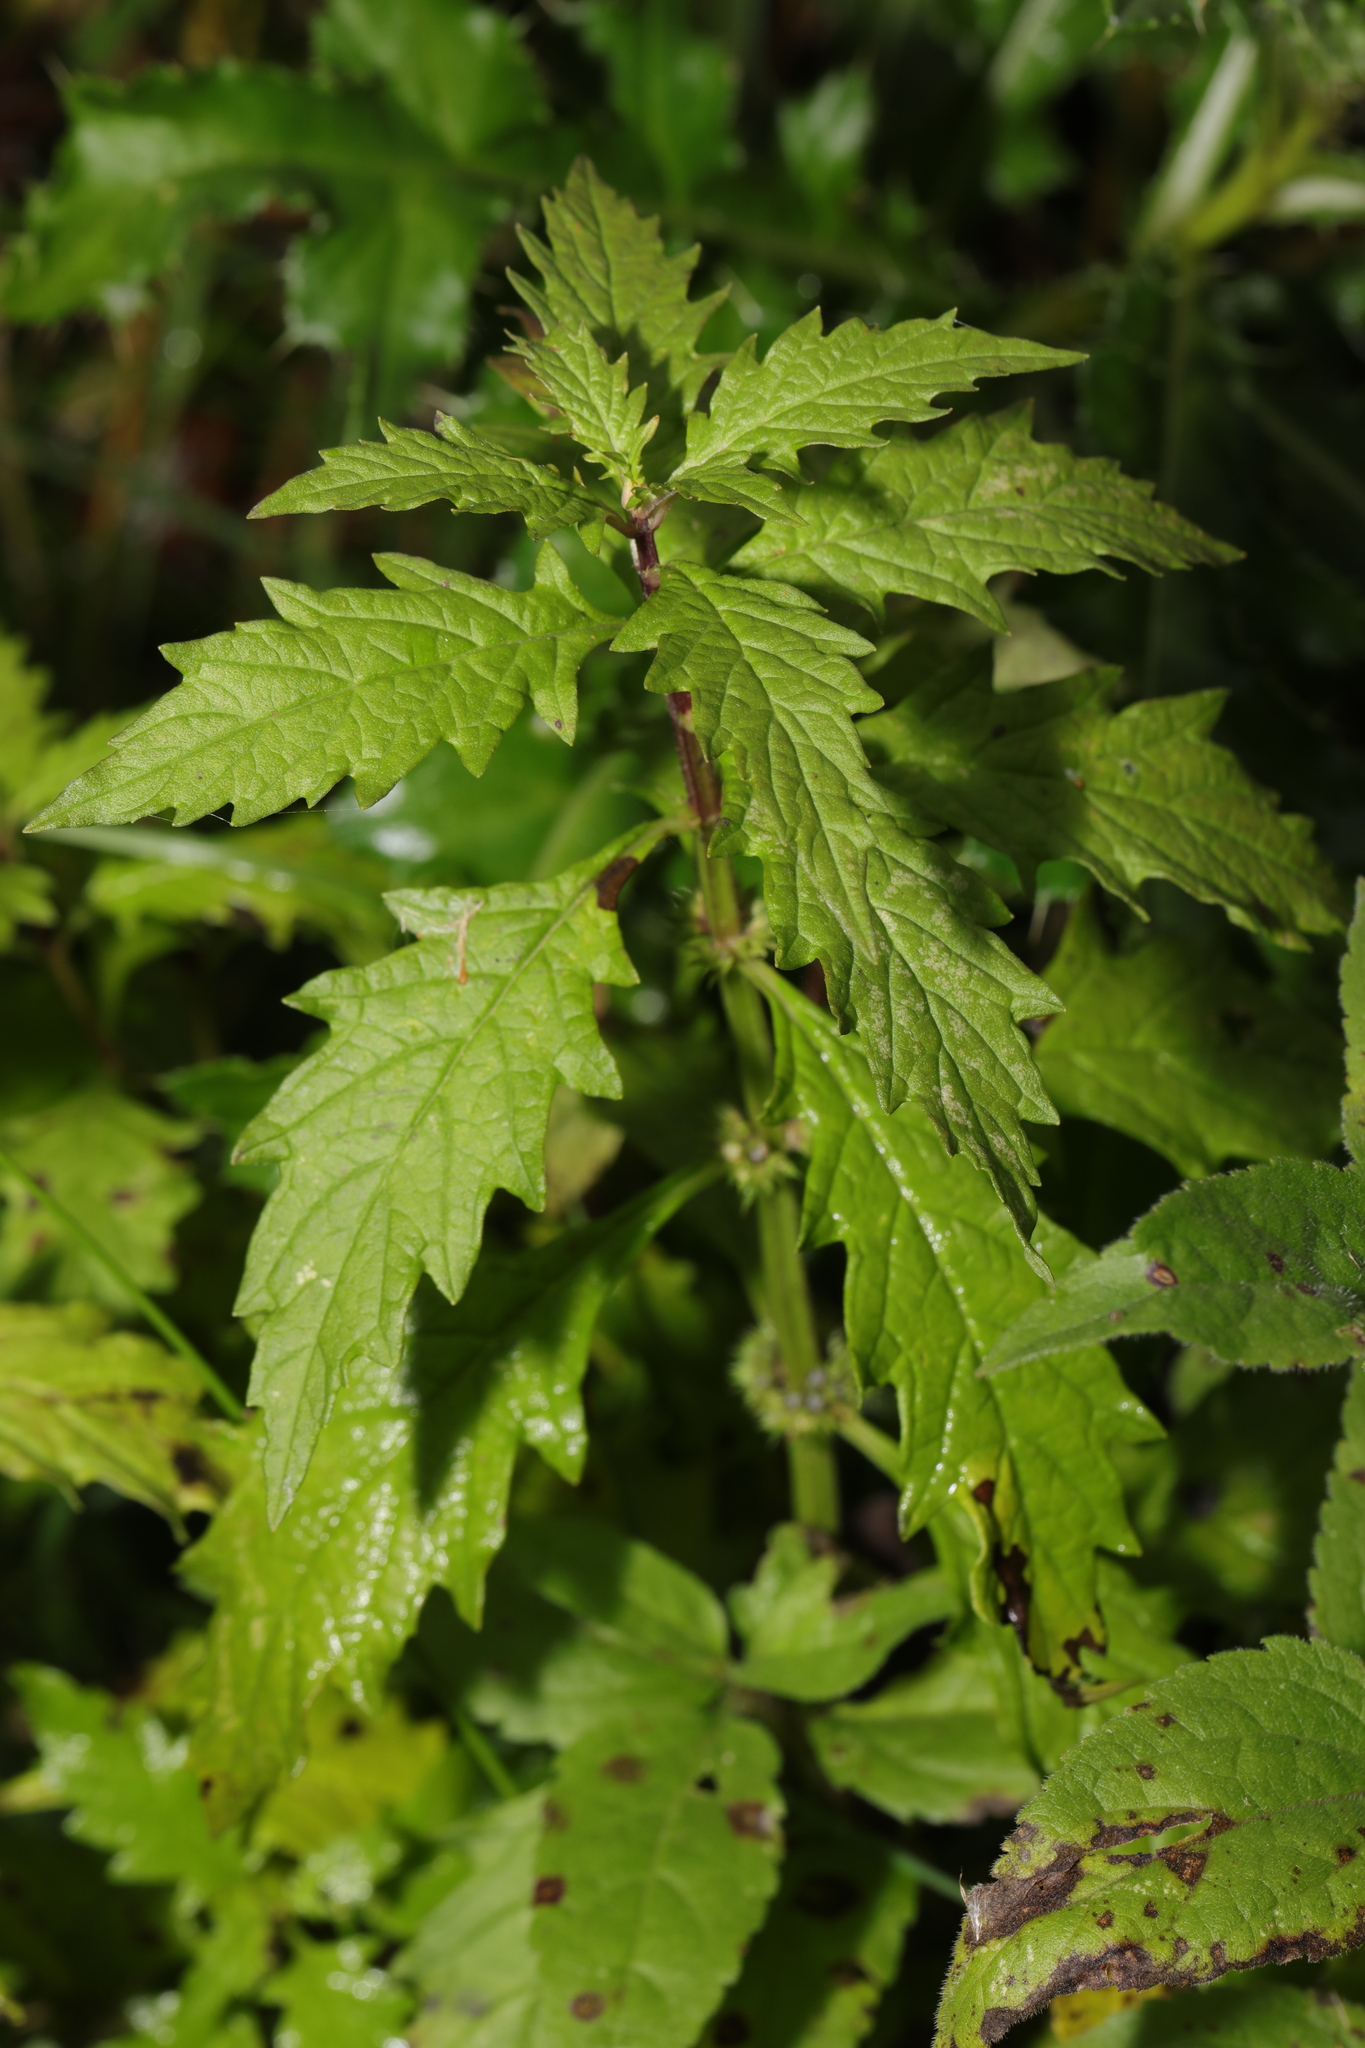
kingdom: Plantae
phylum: Tracheophyta
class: Magnoliopsida
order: Lamiales
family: Lamiaceae
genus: Lycopus
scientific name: Lycopus europaeus
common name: European bugleweed
